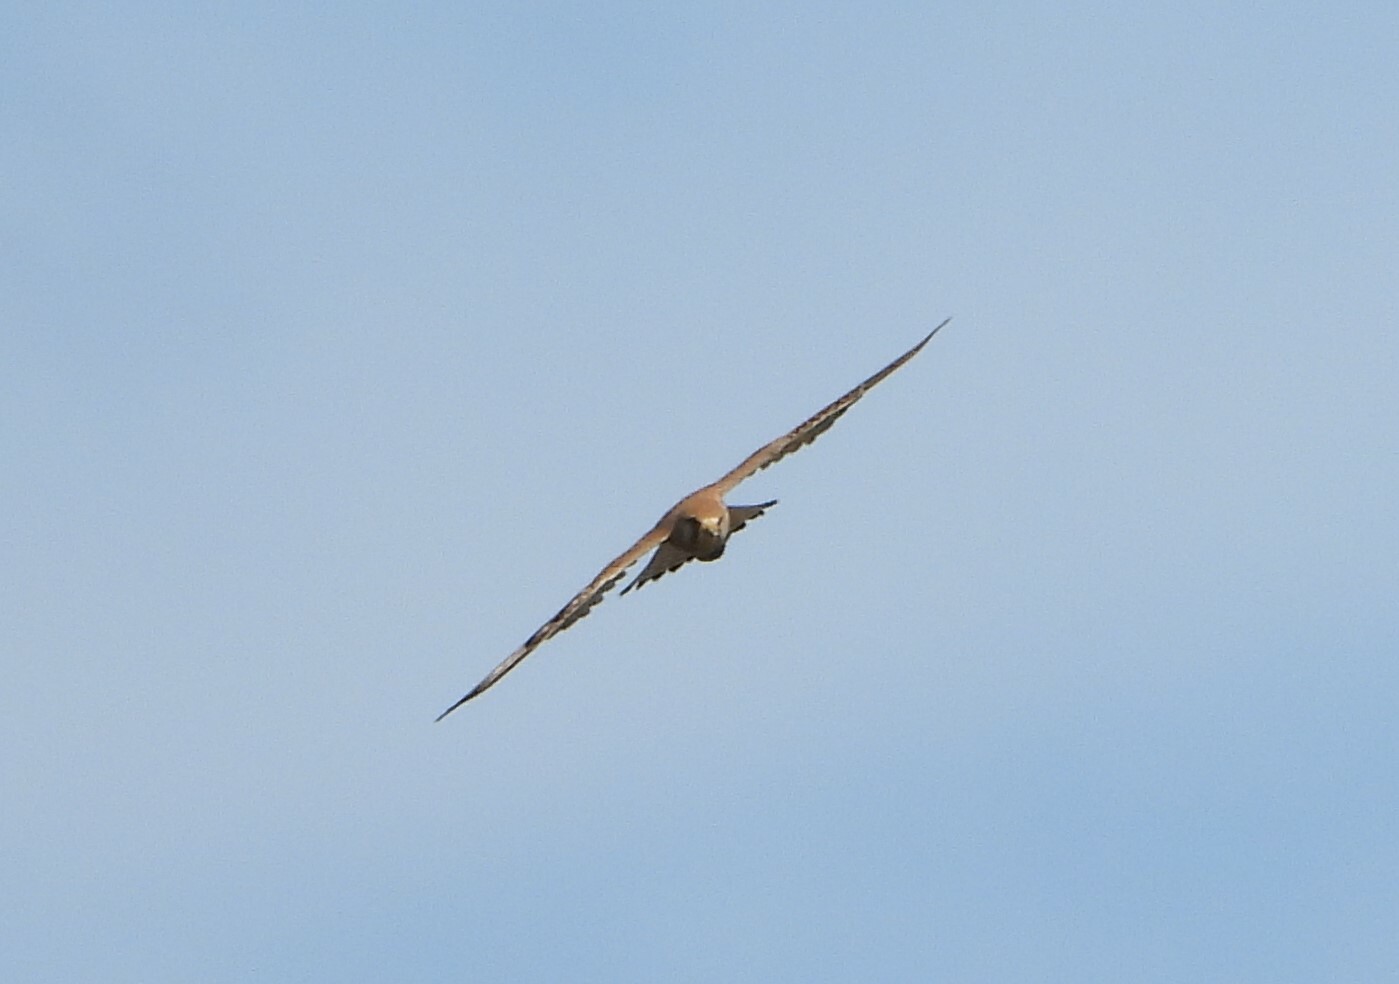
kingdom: Animalia
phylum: Chordata
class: Aves
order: Falconiformes
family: Falconidae
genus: Falco
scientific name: Falco tinnunculus
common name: Common kestrel
